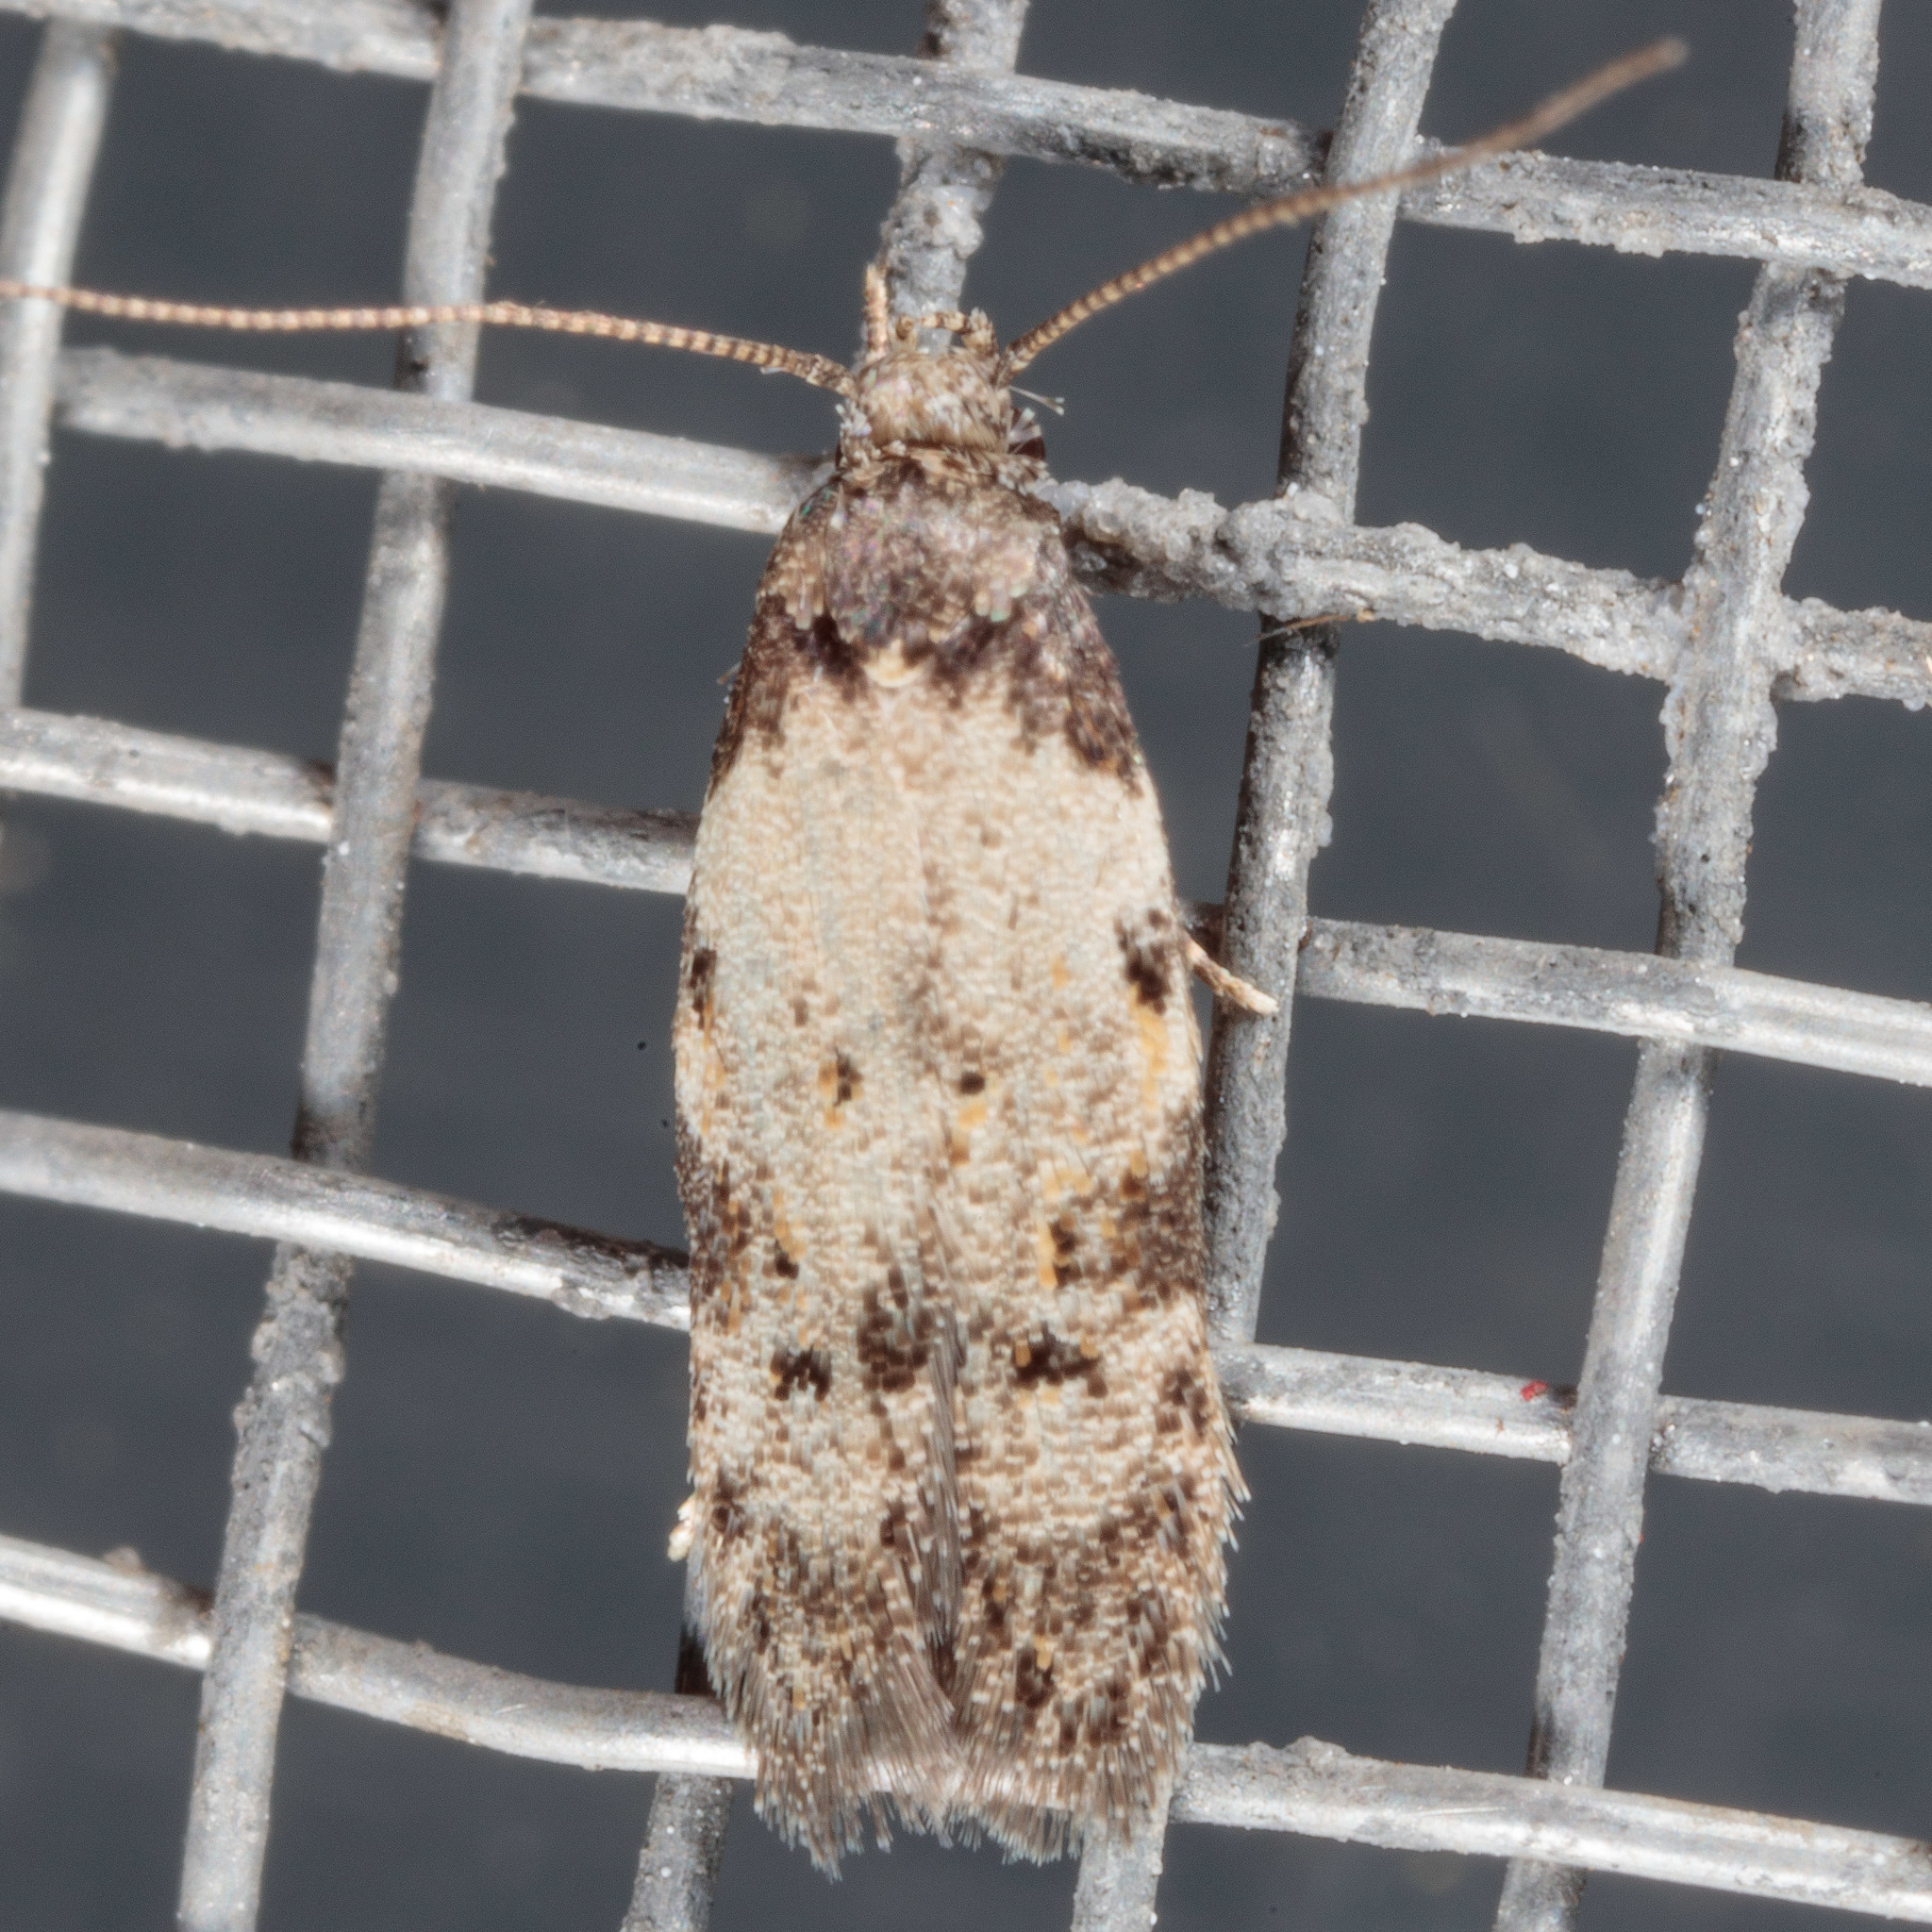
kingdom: Animalia
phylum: Arthropoda
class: Insecta
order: Lepidoptera
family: Autostichidae
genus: Taygete
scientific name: Taygete attributella
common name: Triangle-marked twirler moth
